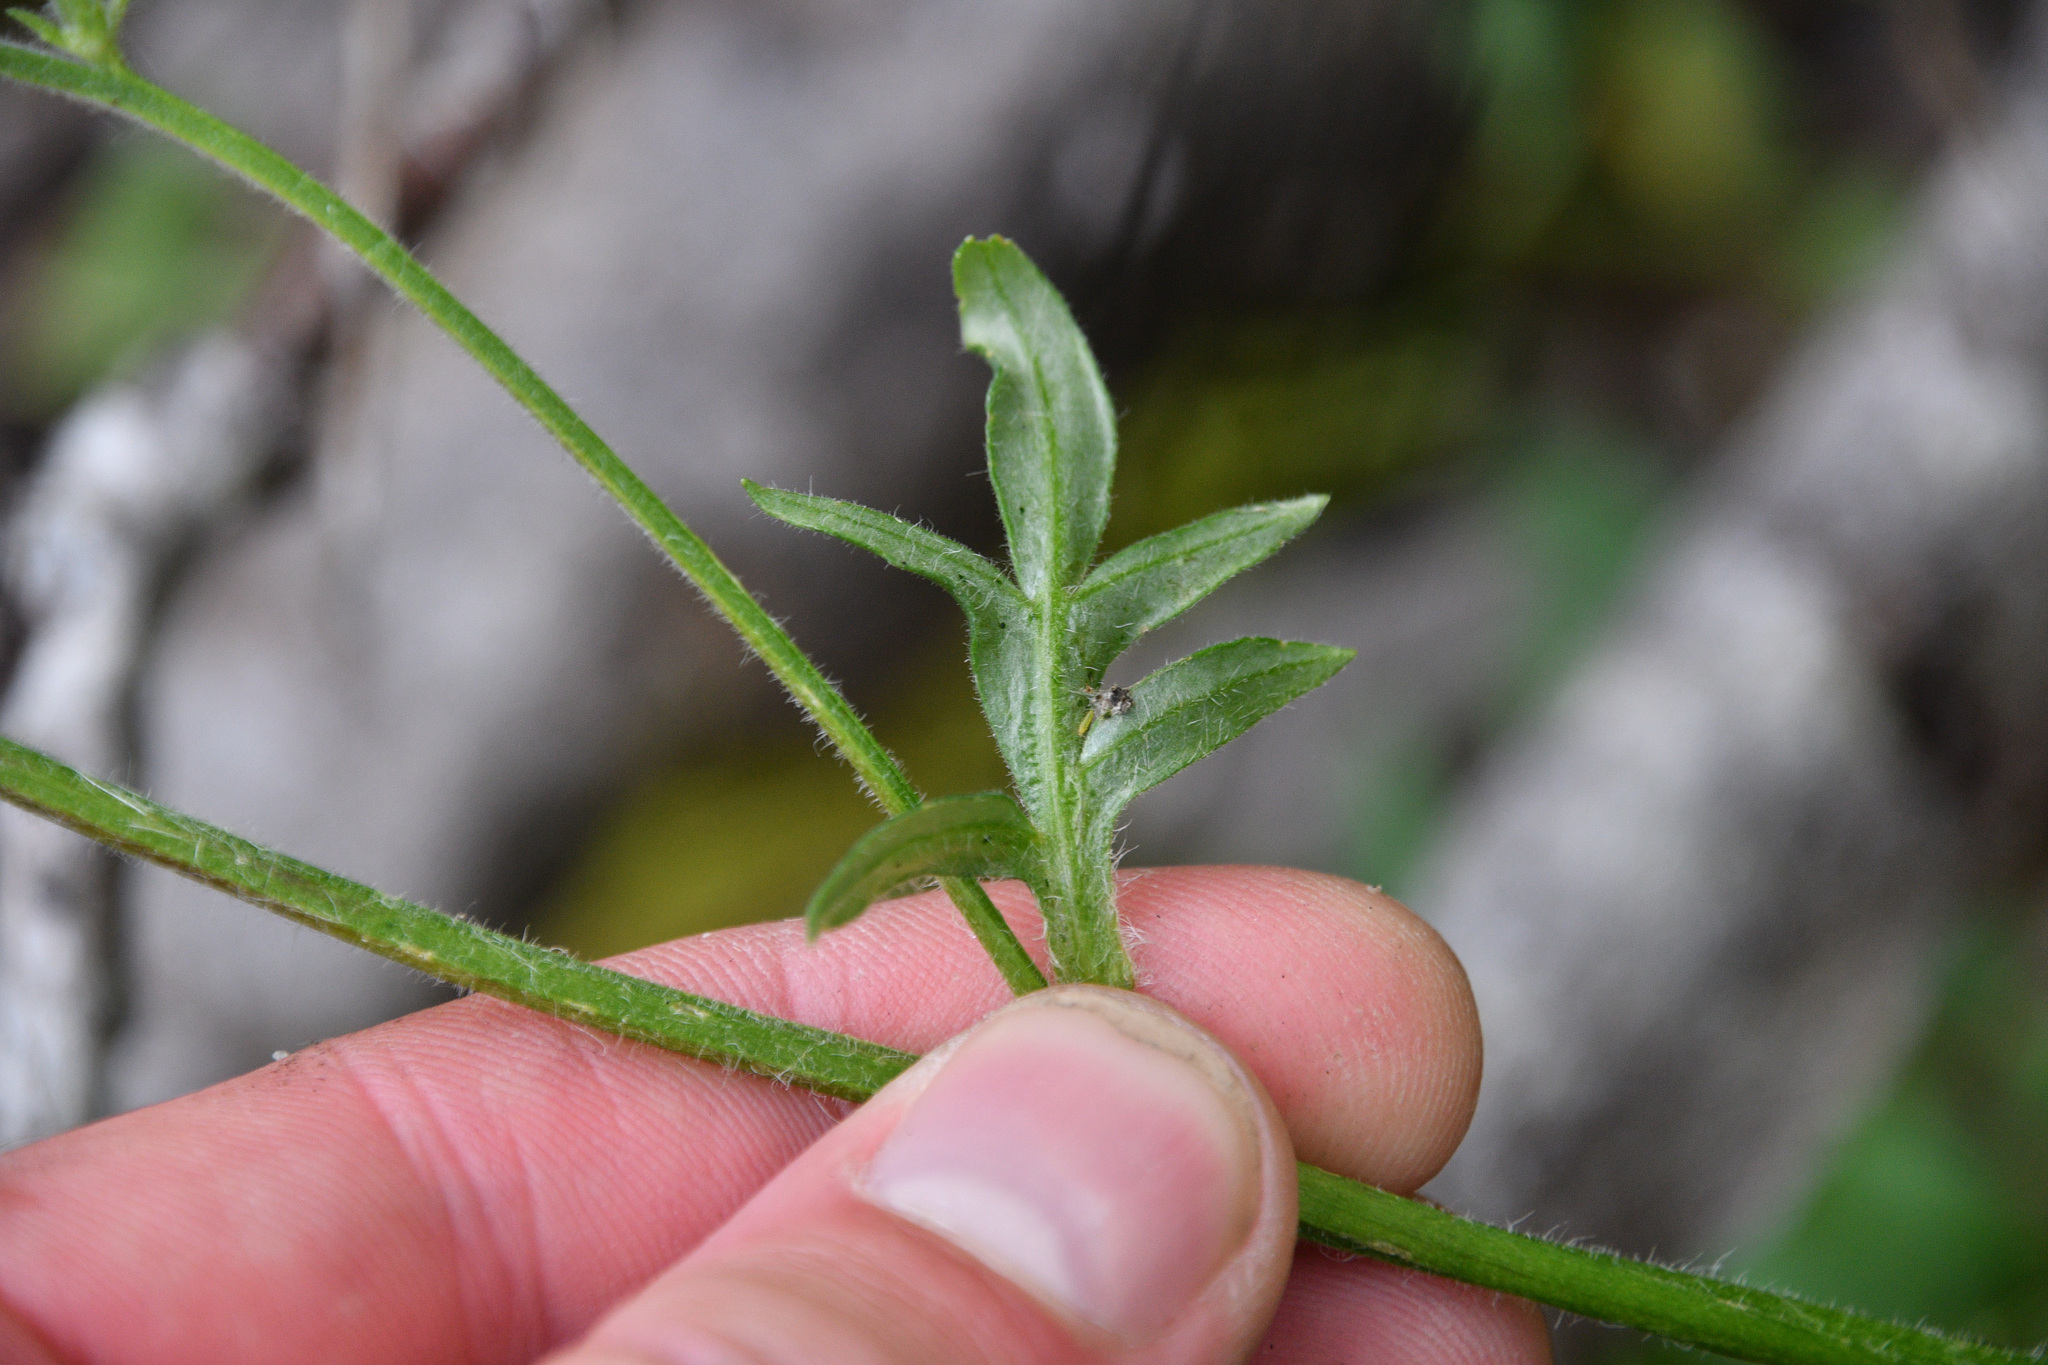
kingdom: Plantae
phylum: Tracheophyta
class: Magnoliopsida
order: Ericales
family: Polemoniaceae
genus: Polemonium
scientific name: Polemonium acutiflorum
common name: Tall jacob's-ladder
